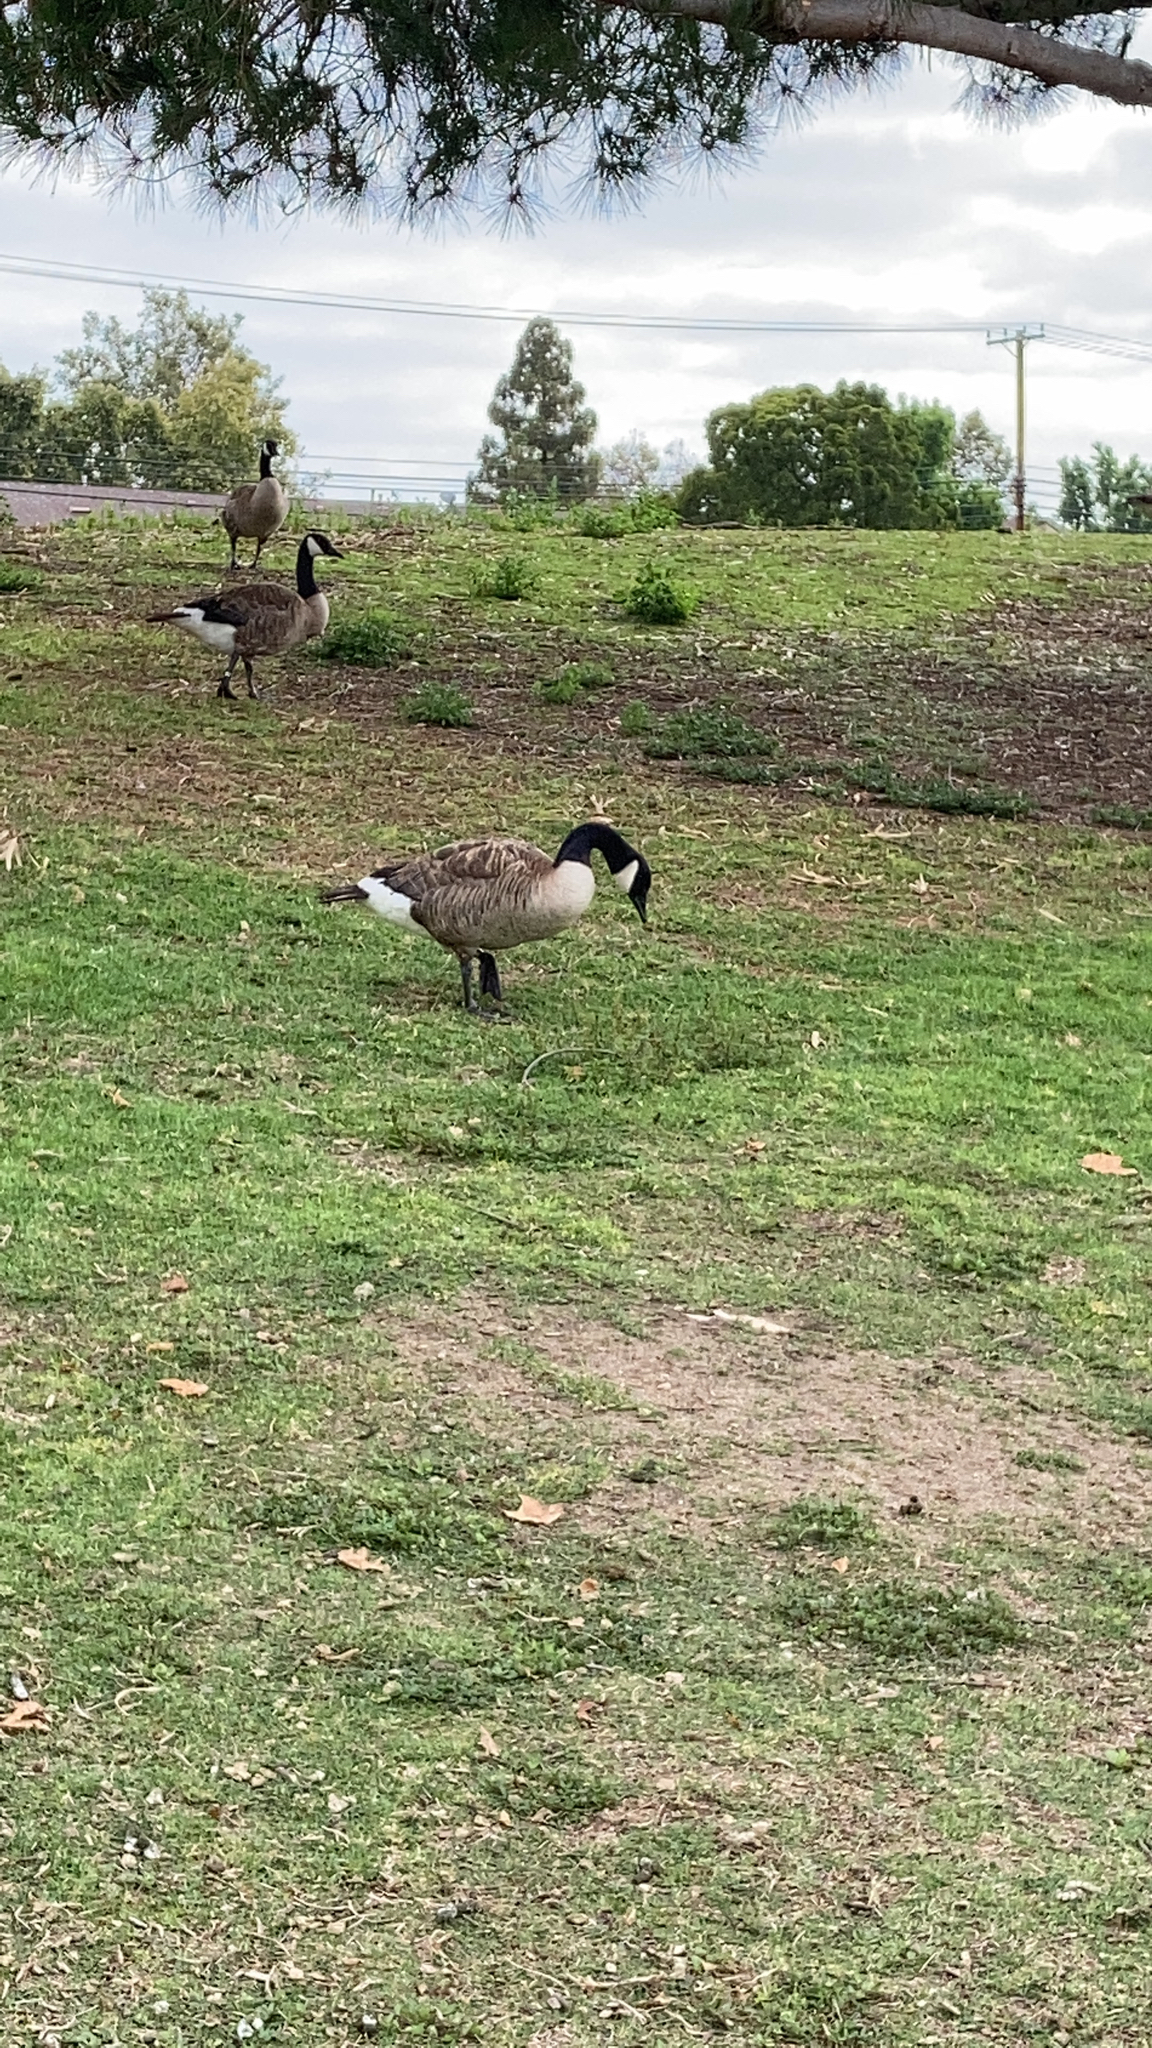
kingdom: Animalia
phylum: Chordata
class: Aves
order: Anseriformes
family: Anatidae
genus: Branta
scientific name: Branta canadensis
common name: Canada goose
